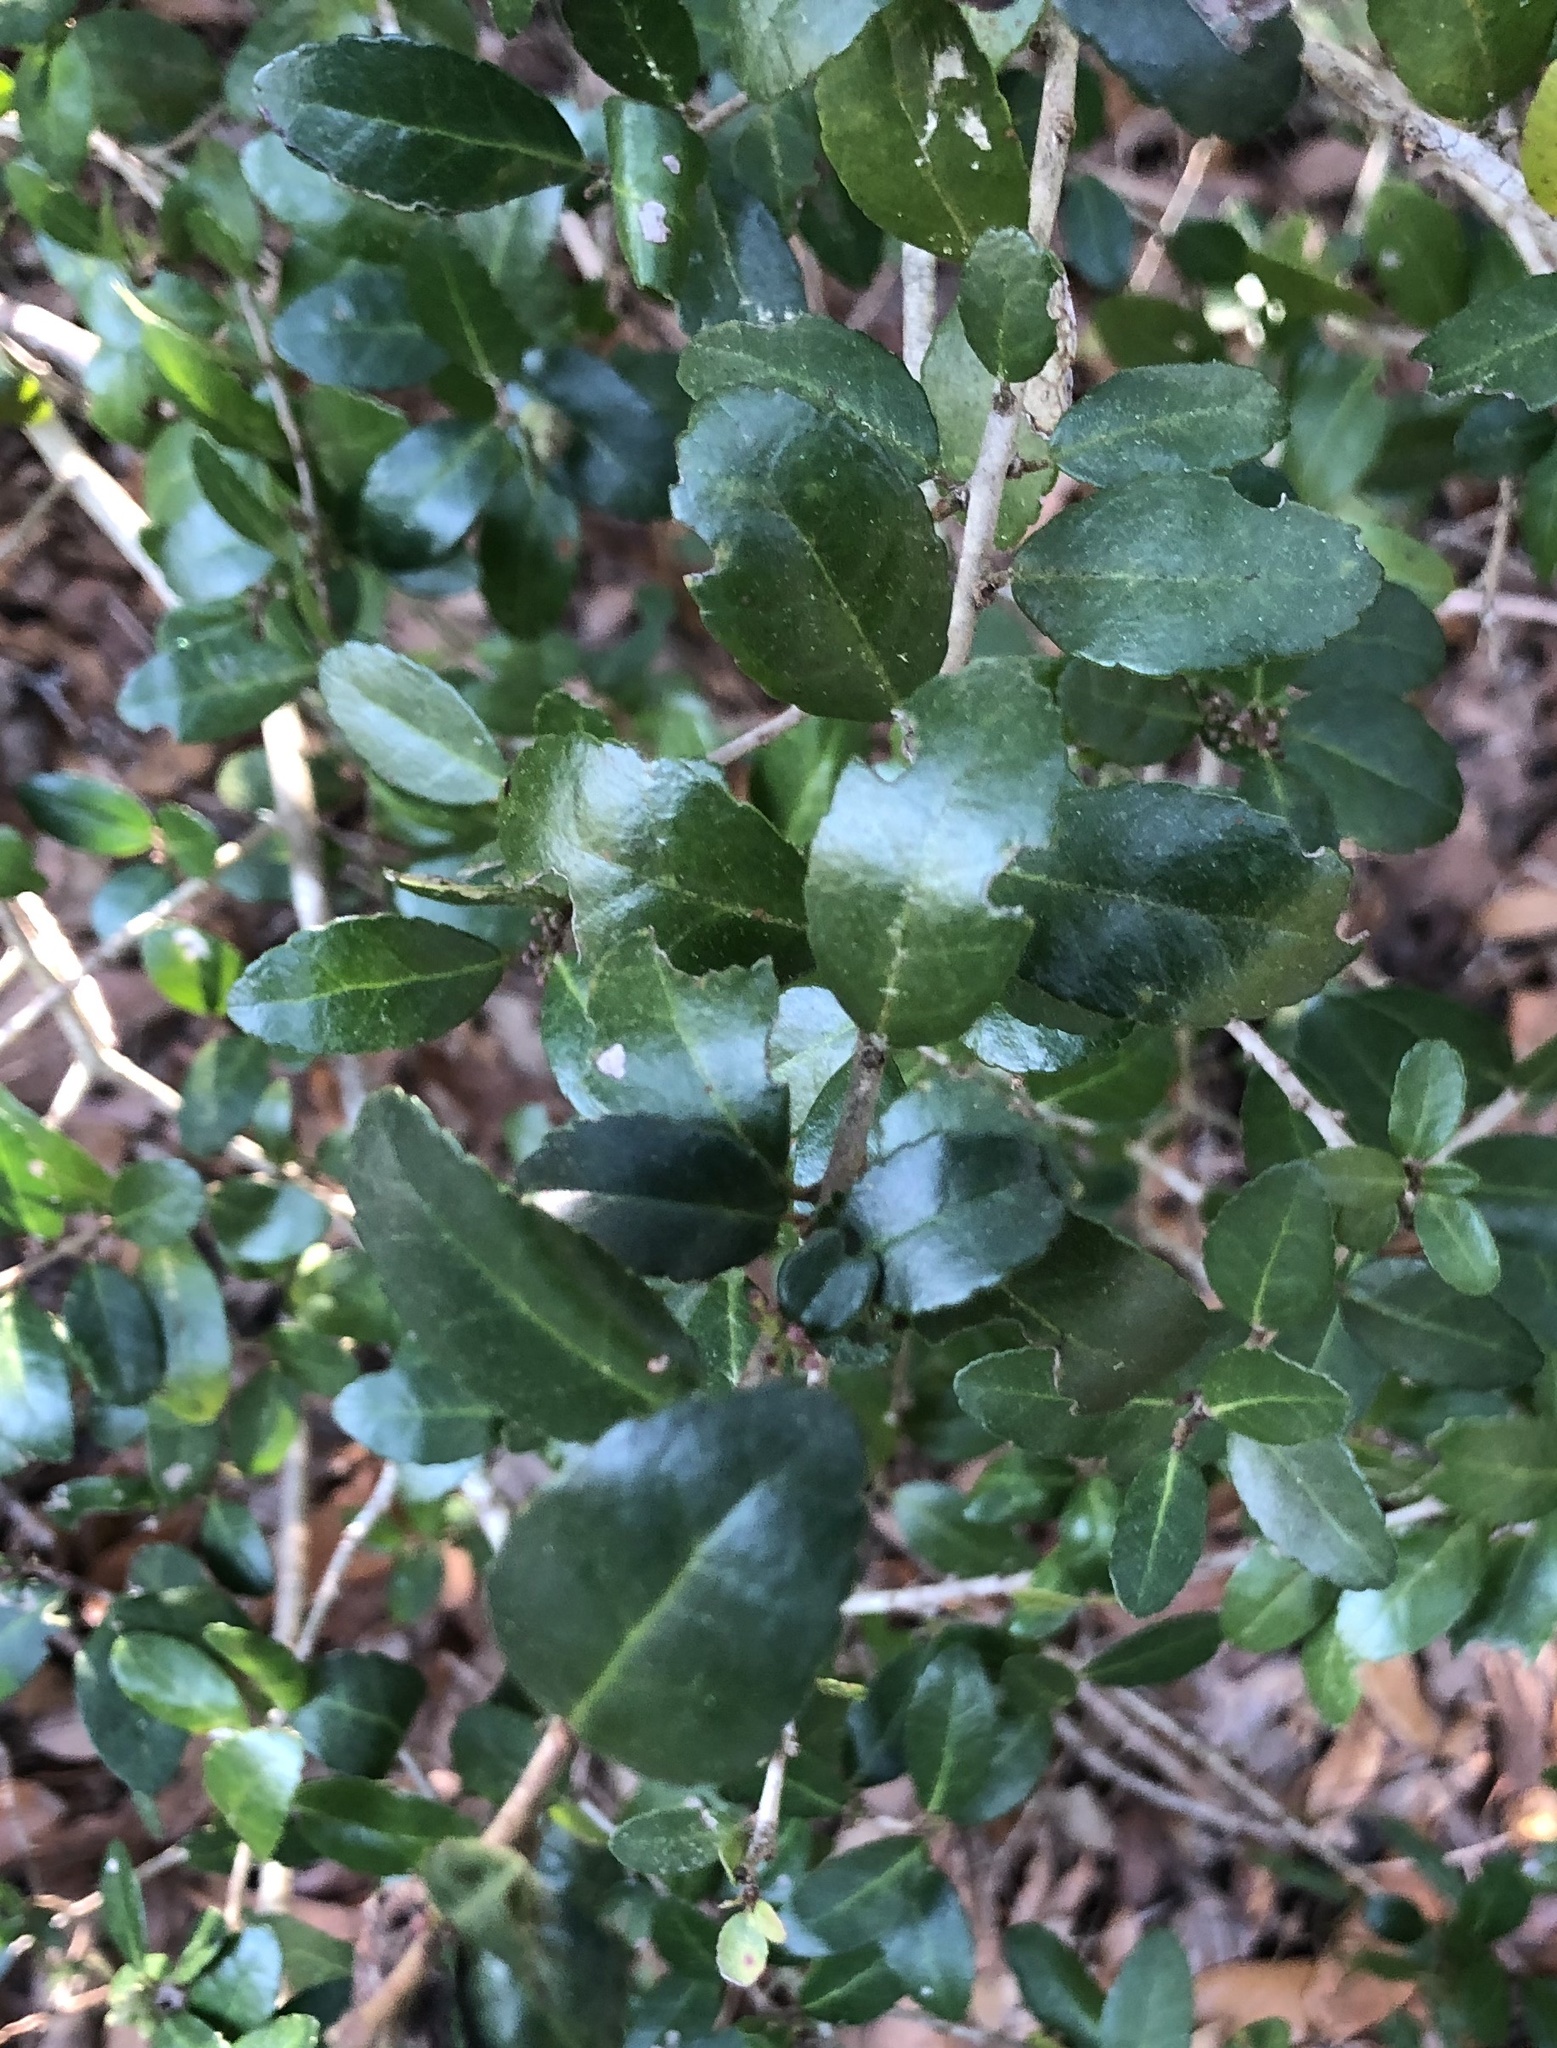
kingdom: Plantae
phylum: Tracheophyta
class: Magnoliopsida
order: Aquifoliales
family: Aquifoliaceae
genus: Ilex
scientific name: Ilex vomitoria
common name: Yaupon holly
